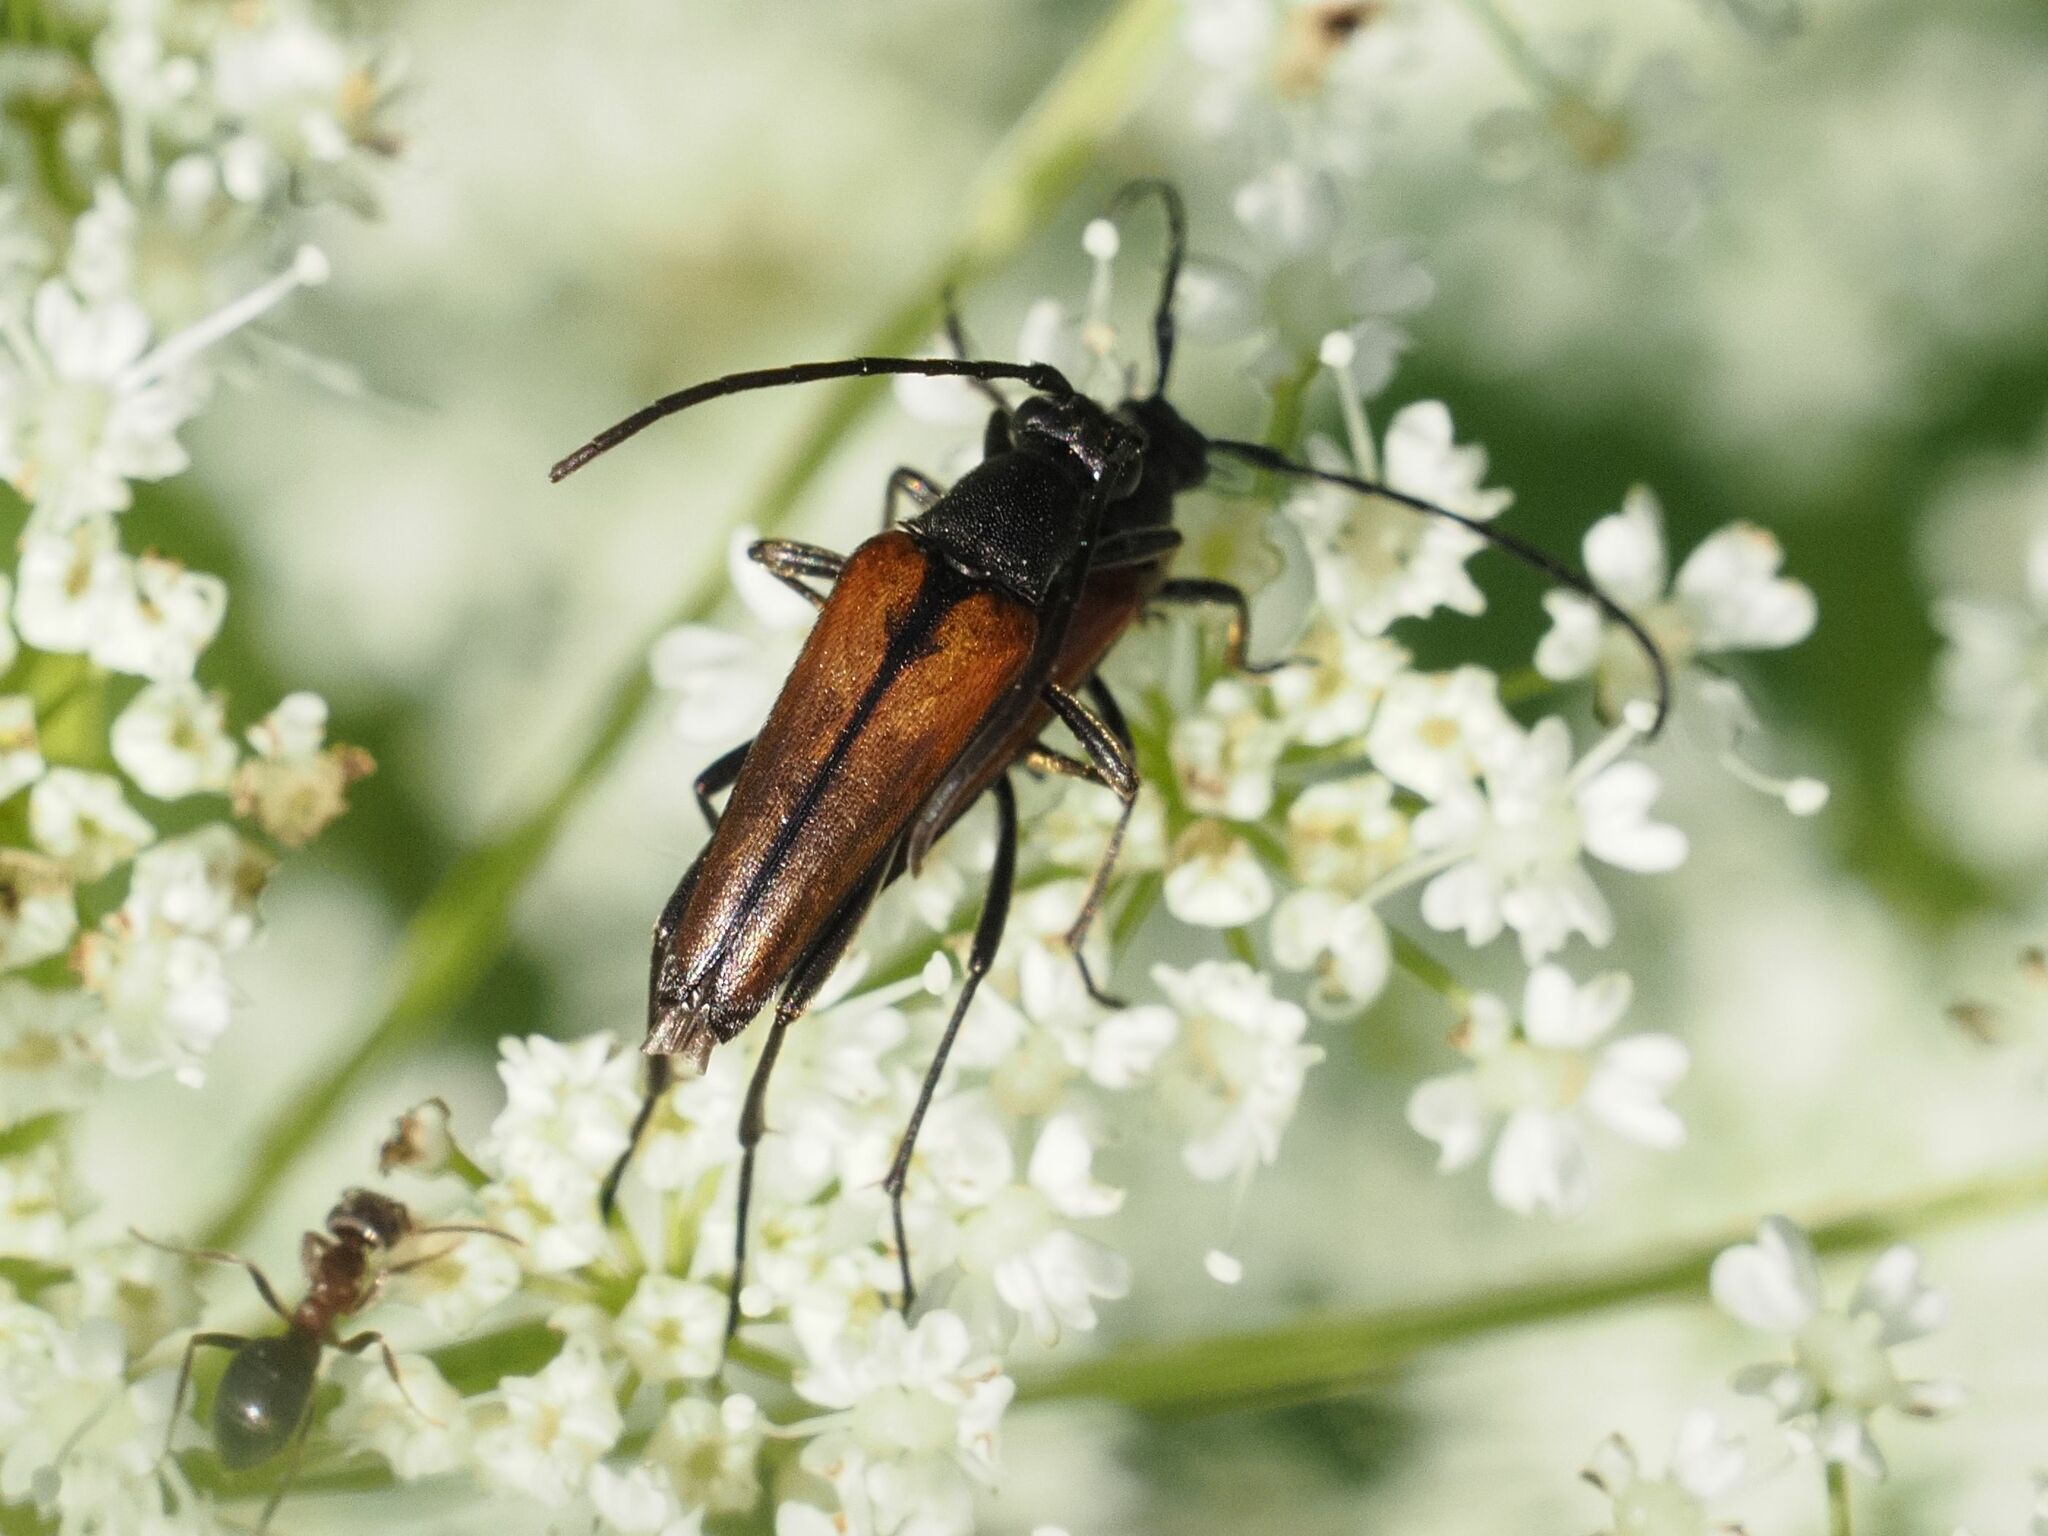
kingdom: Animalia
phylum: Arthropoda
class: Insecta
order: Coleoptera
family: Cerambycidae
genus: Stenurella
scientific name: Stenurella melanura
